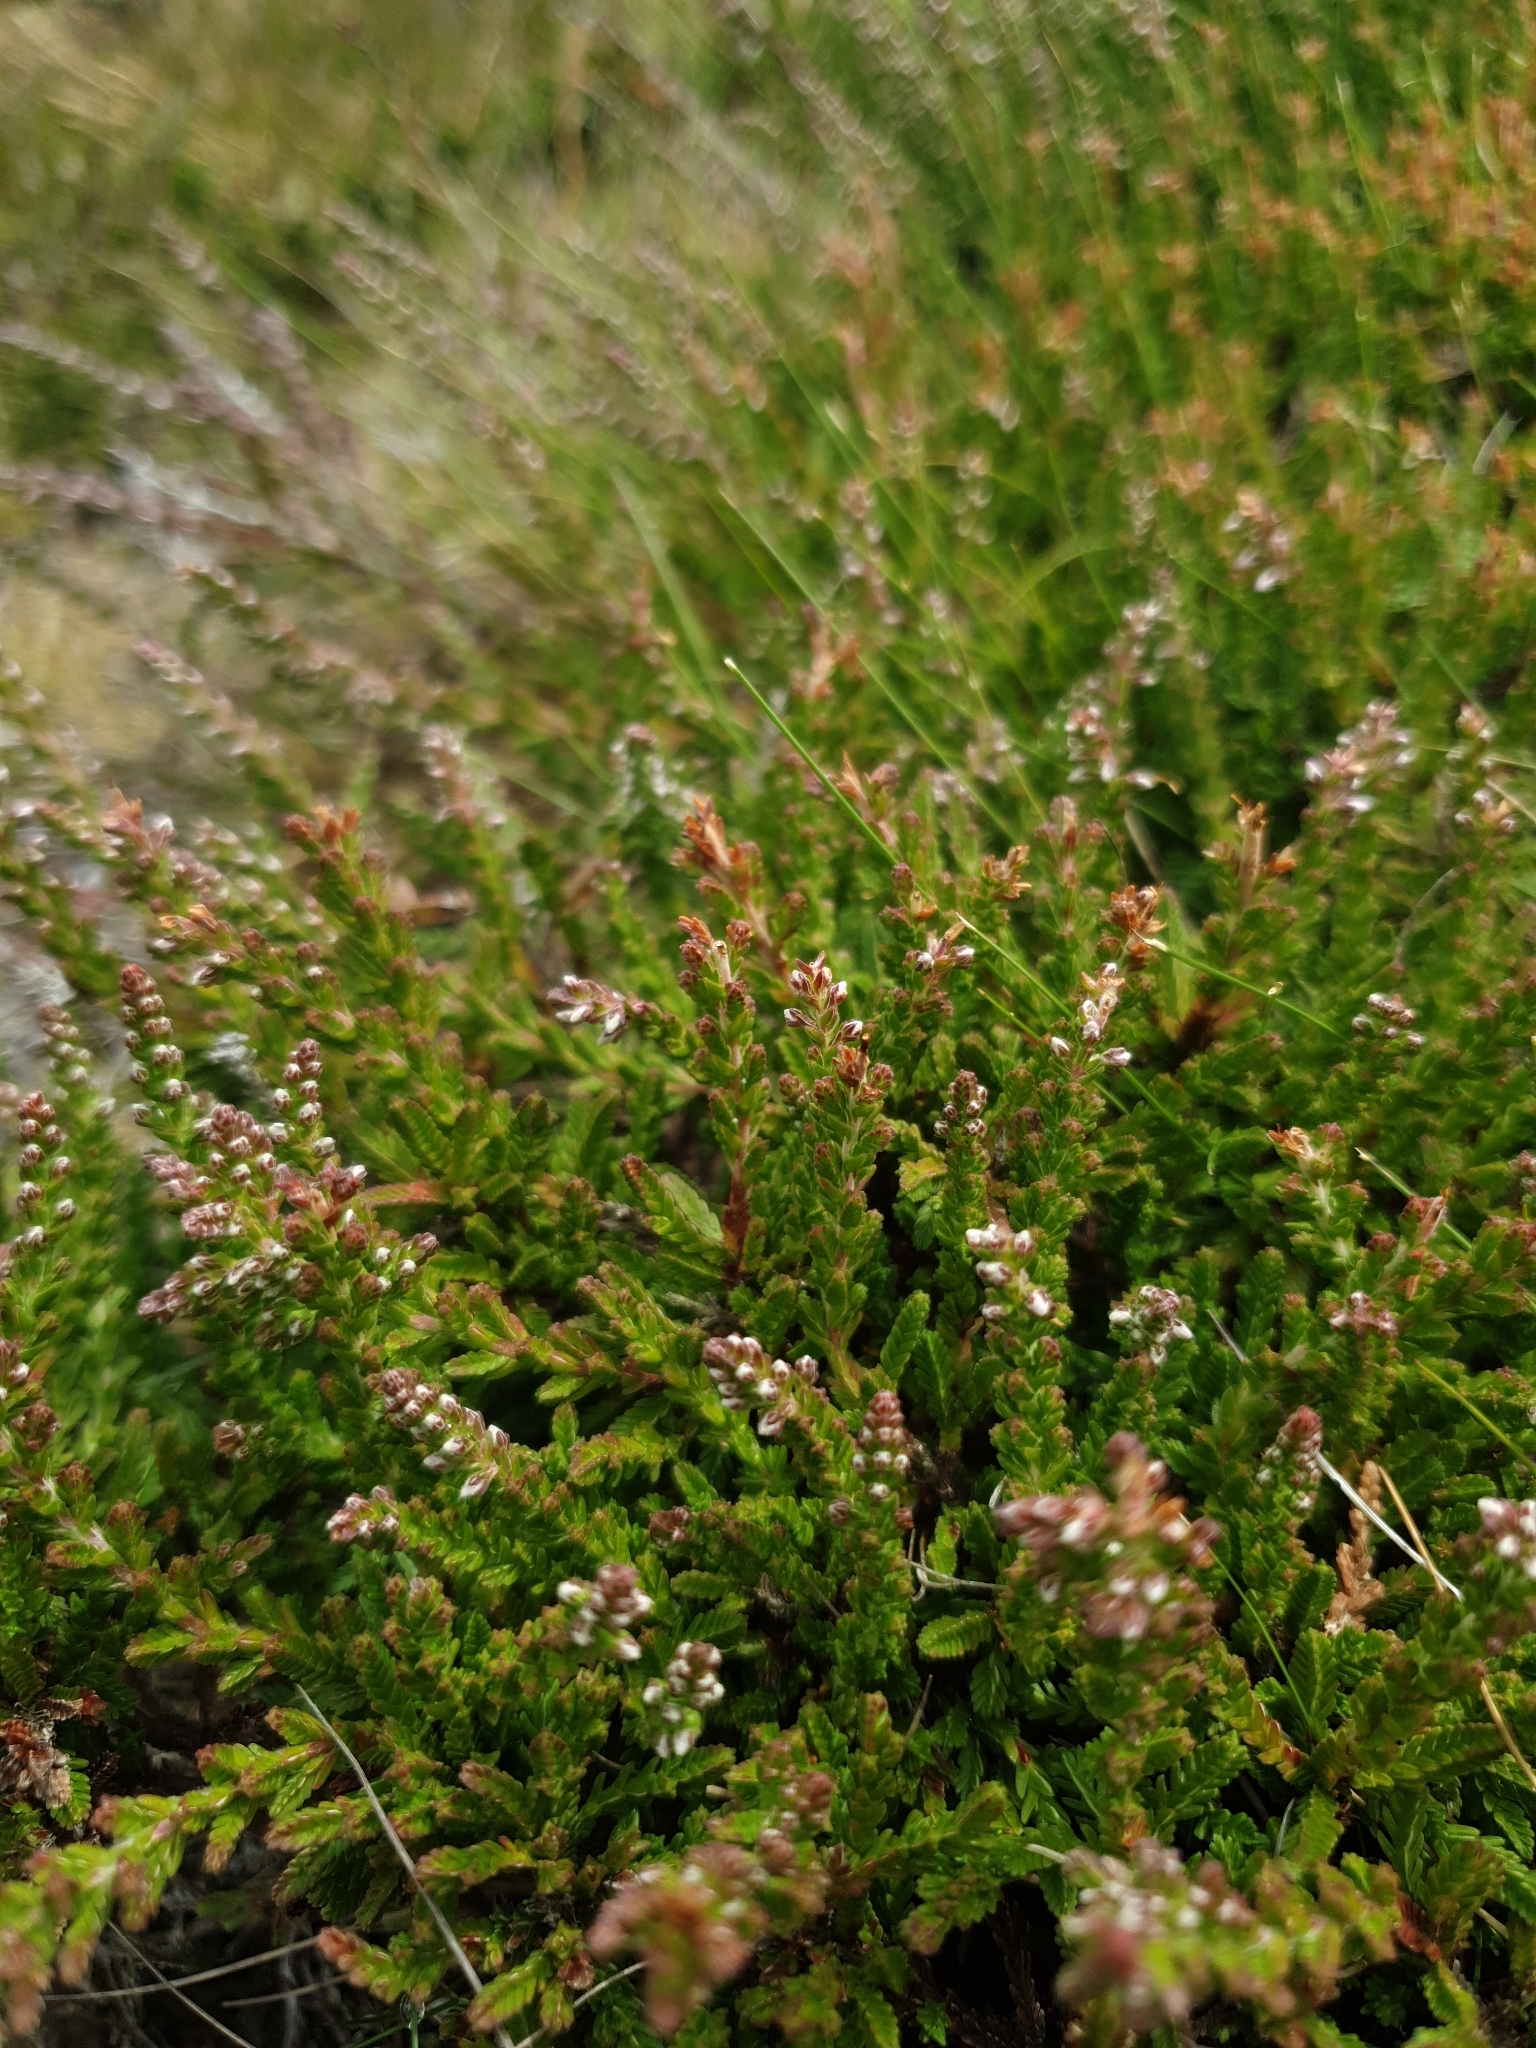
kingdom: Plantae
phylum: Tracheophyta
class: Magnoliopsida
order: Ericales
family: Ericaceae
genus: Calluna
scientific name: Calluna vulgaris
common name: Heather
